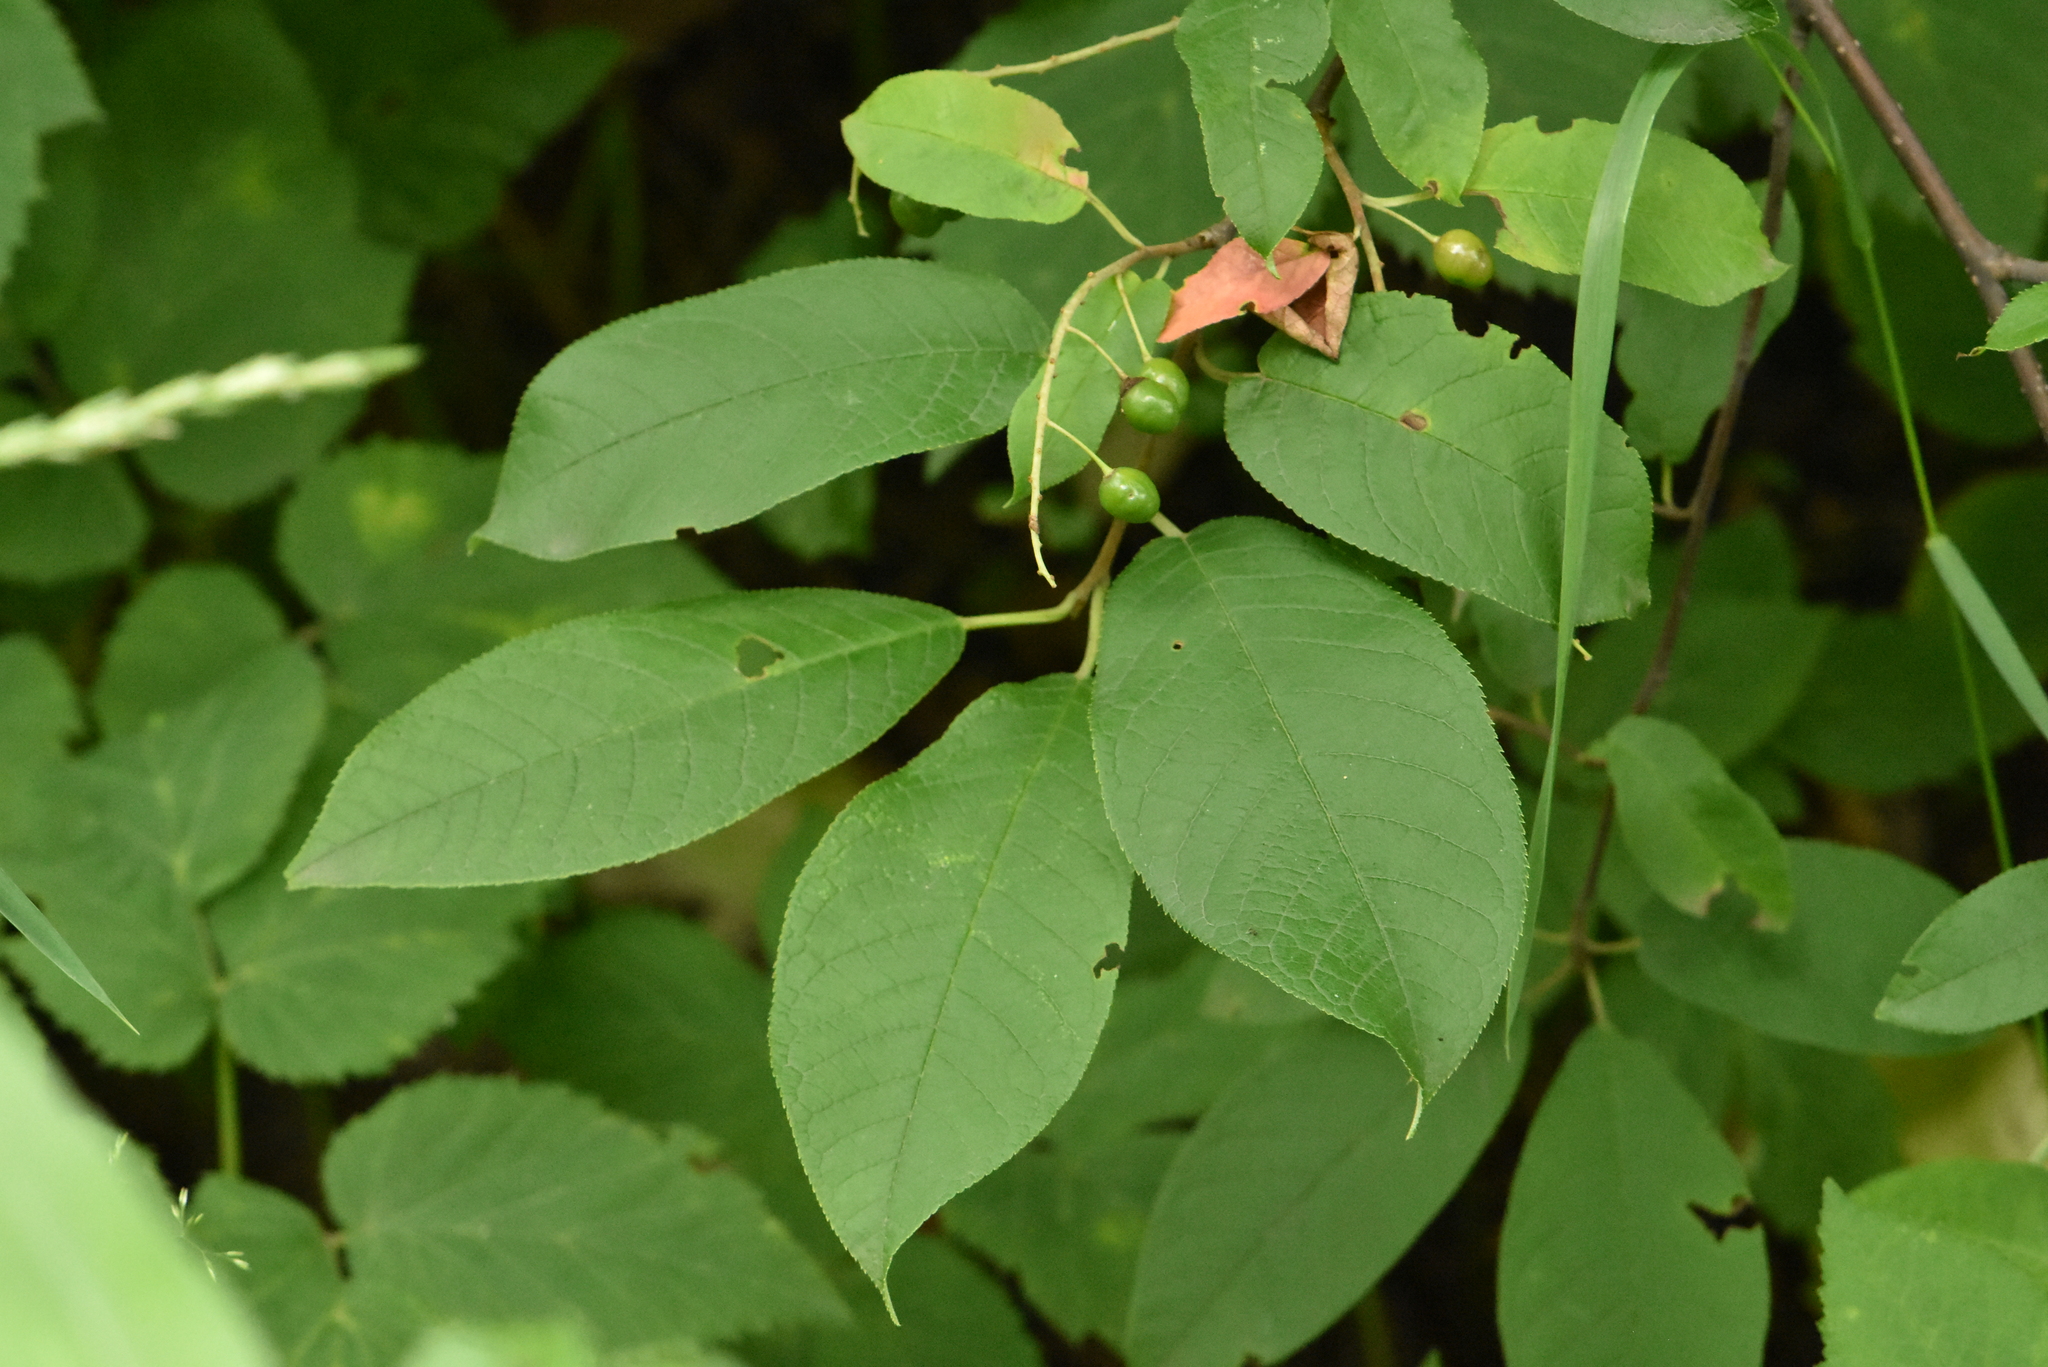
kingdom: Plantae
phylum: Tracheophyta
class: Magnoliopsida
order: Rosales
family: Rosaceae
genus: Prunus
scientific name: Prunus padus
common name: Bird cherry
